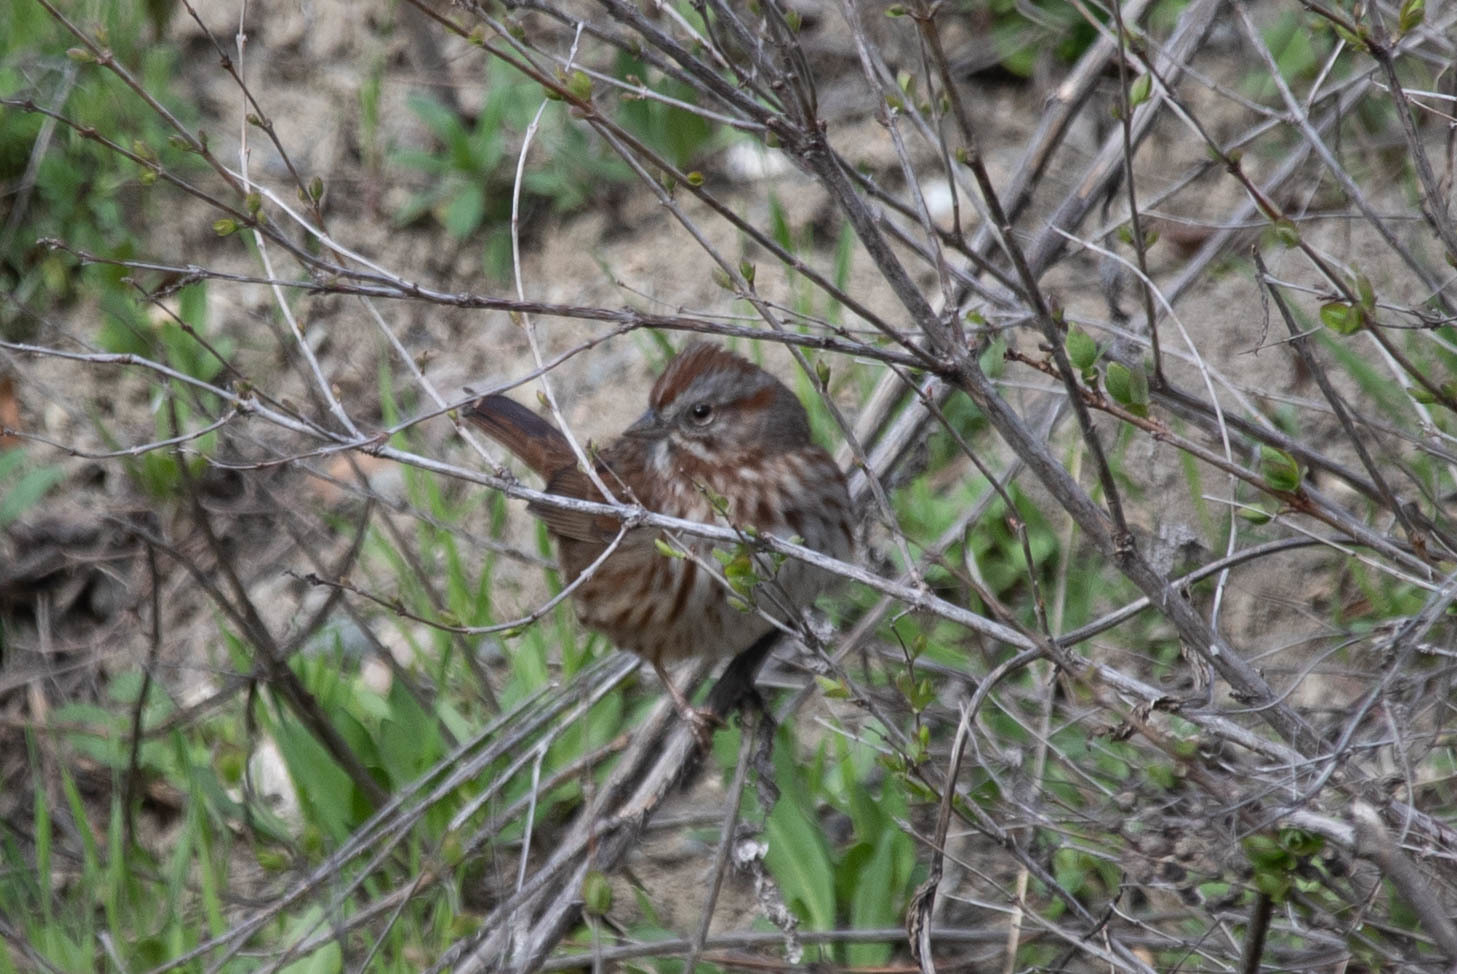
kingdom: Animalia
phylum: Chordata
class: Aves
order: Passeriformes
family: Passerellidae
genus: Melospiza
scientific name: Melospiza melodia
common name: Song sparrow
